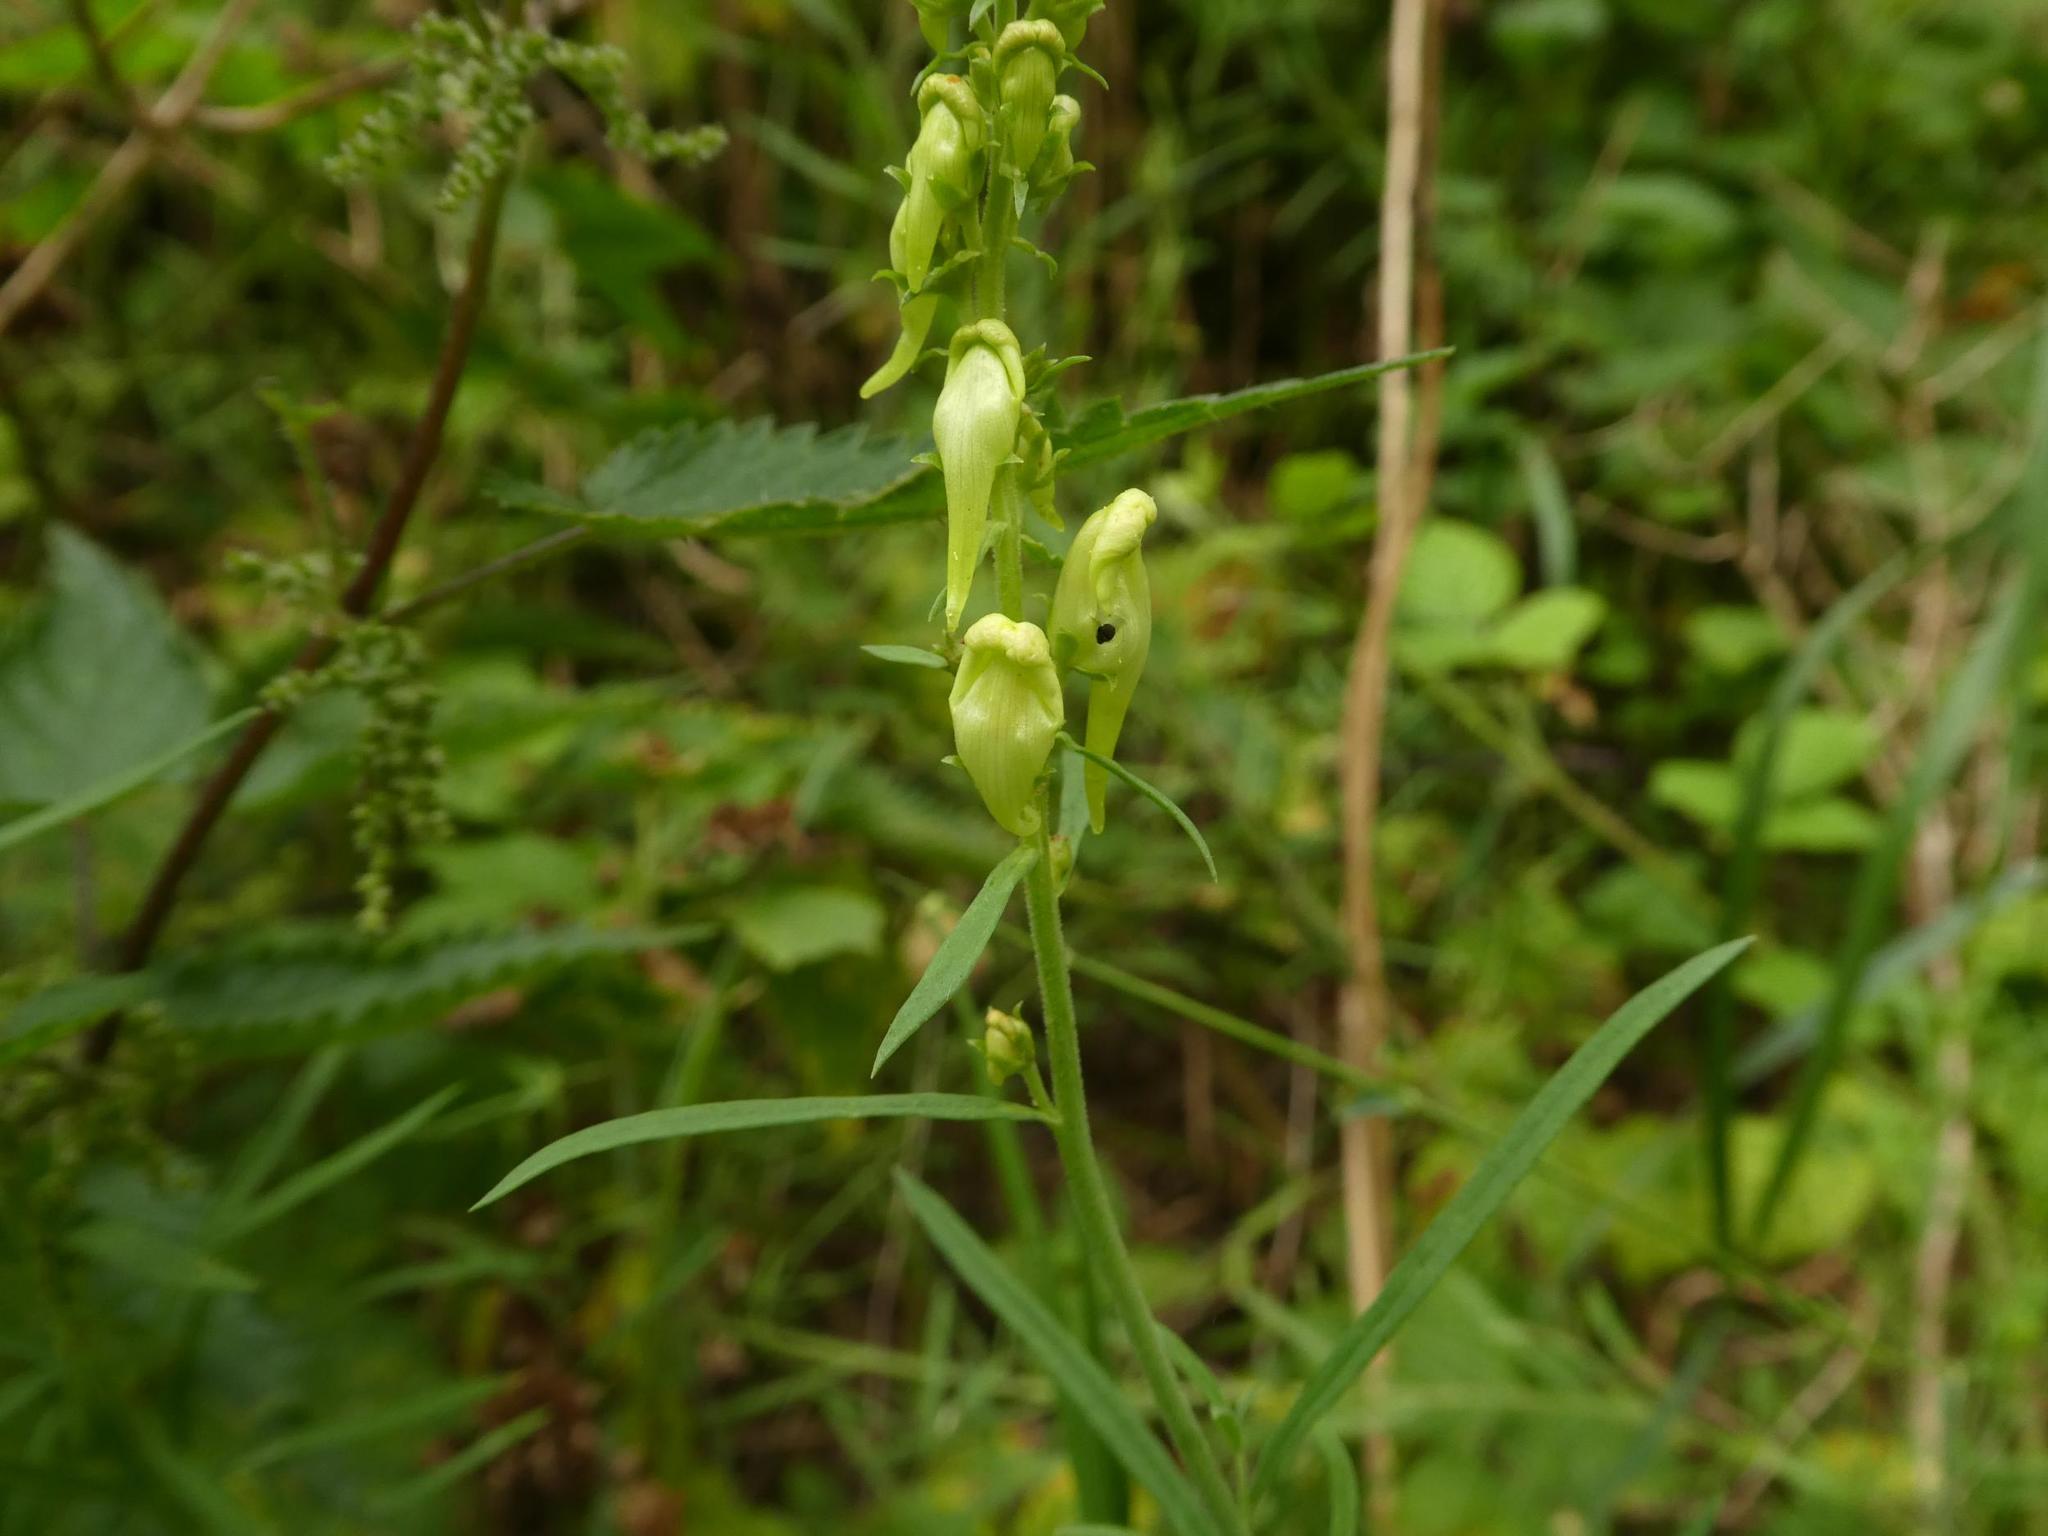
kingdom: Plantae
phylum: Tracheophyta
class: Magnoliopsida
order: Lamiales
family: Plantaginaceae
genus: Linaria
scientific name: Linaria vulgaris
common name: Butter and eggs
